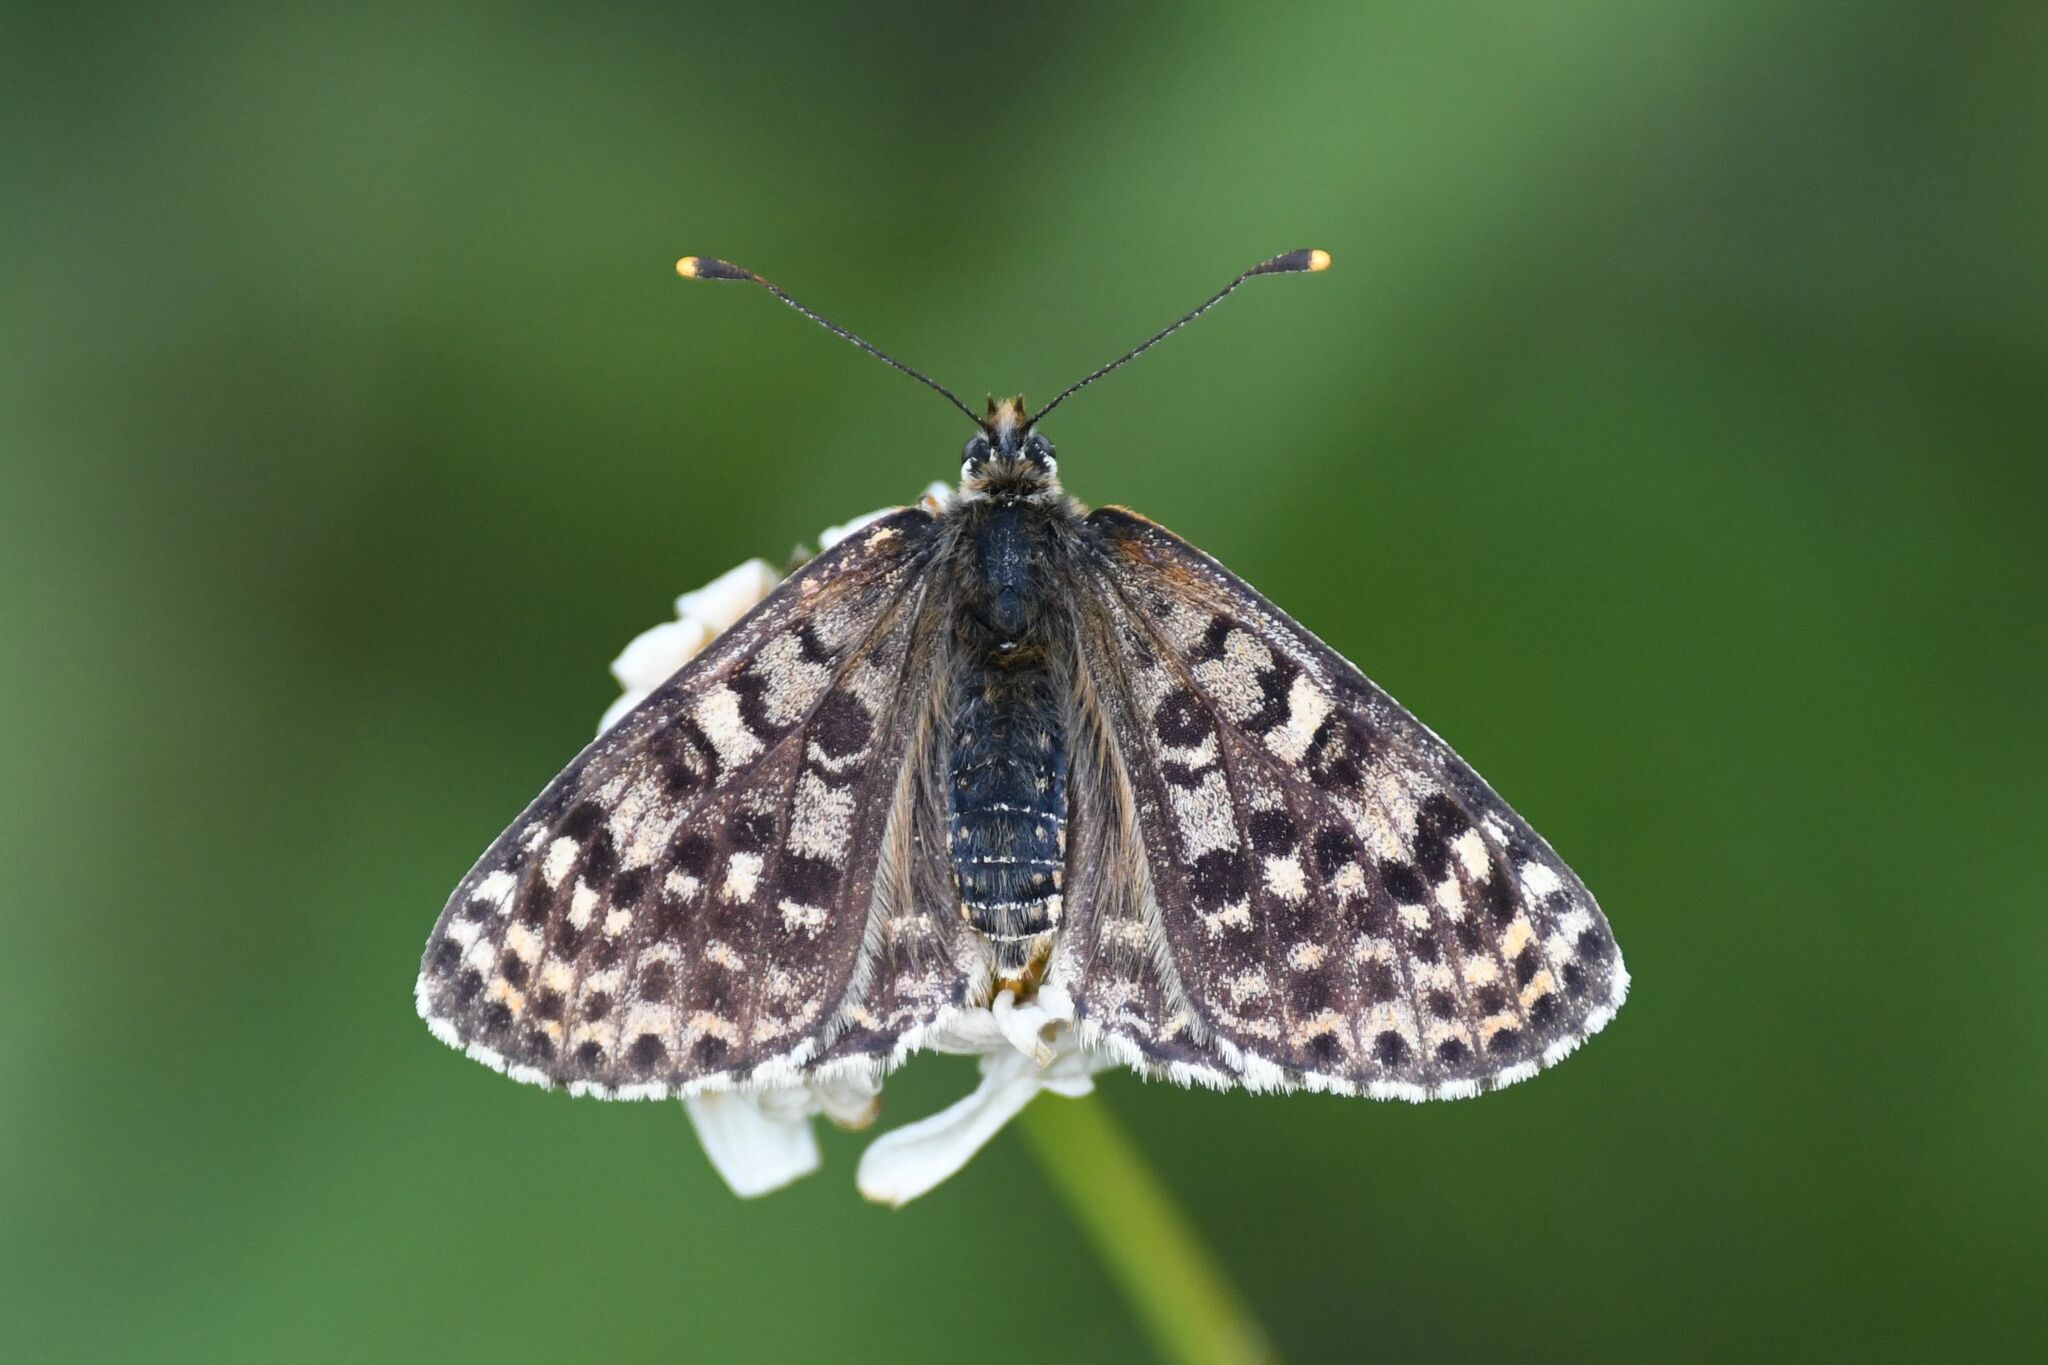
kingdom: Animalia
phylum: Arthropoda
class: Insecta
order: Lepidoptera
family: Nymphalidae
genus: Melitaea
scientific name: Melitaea didyma
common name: Spotted fritillary
